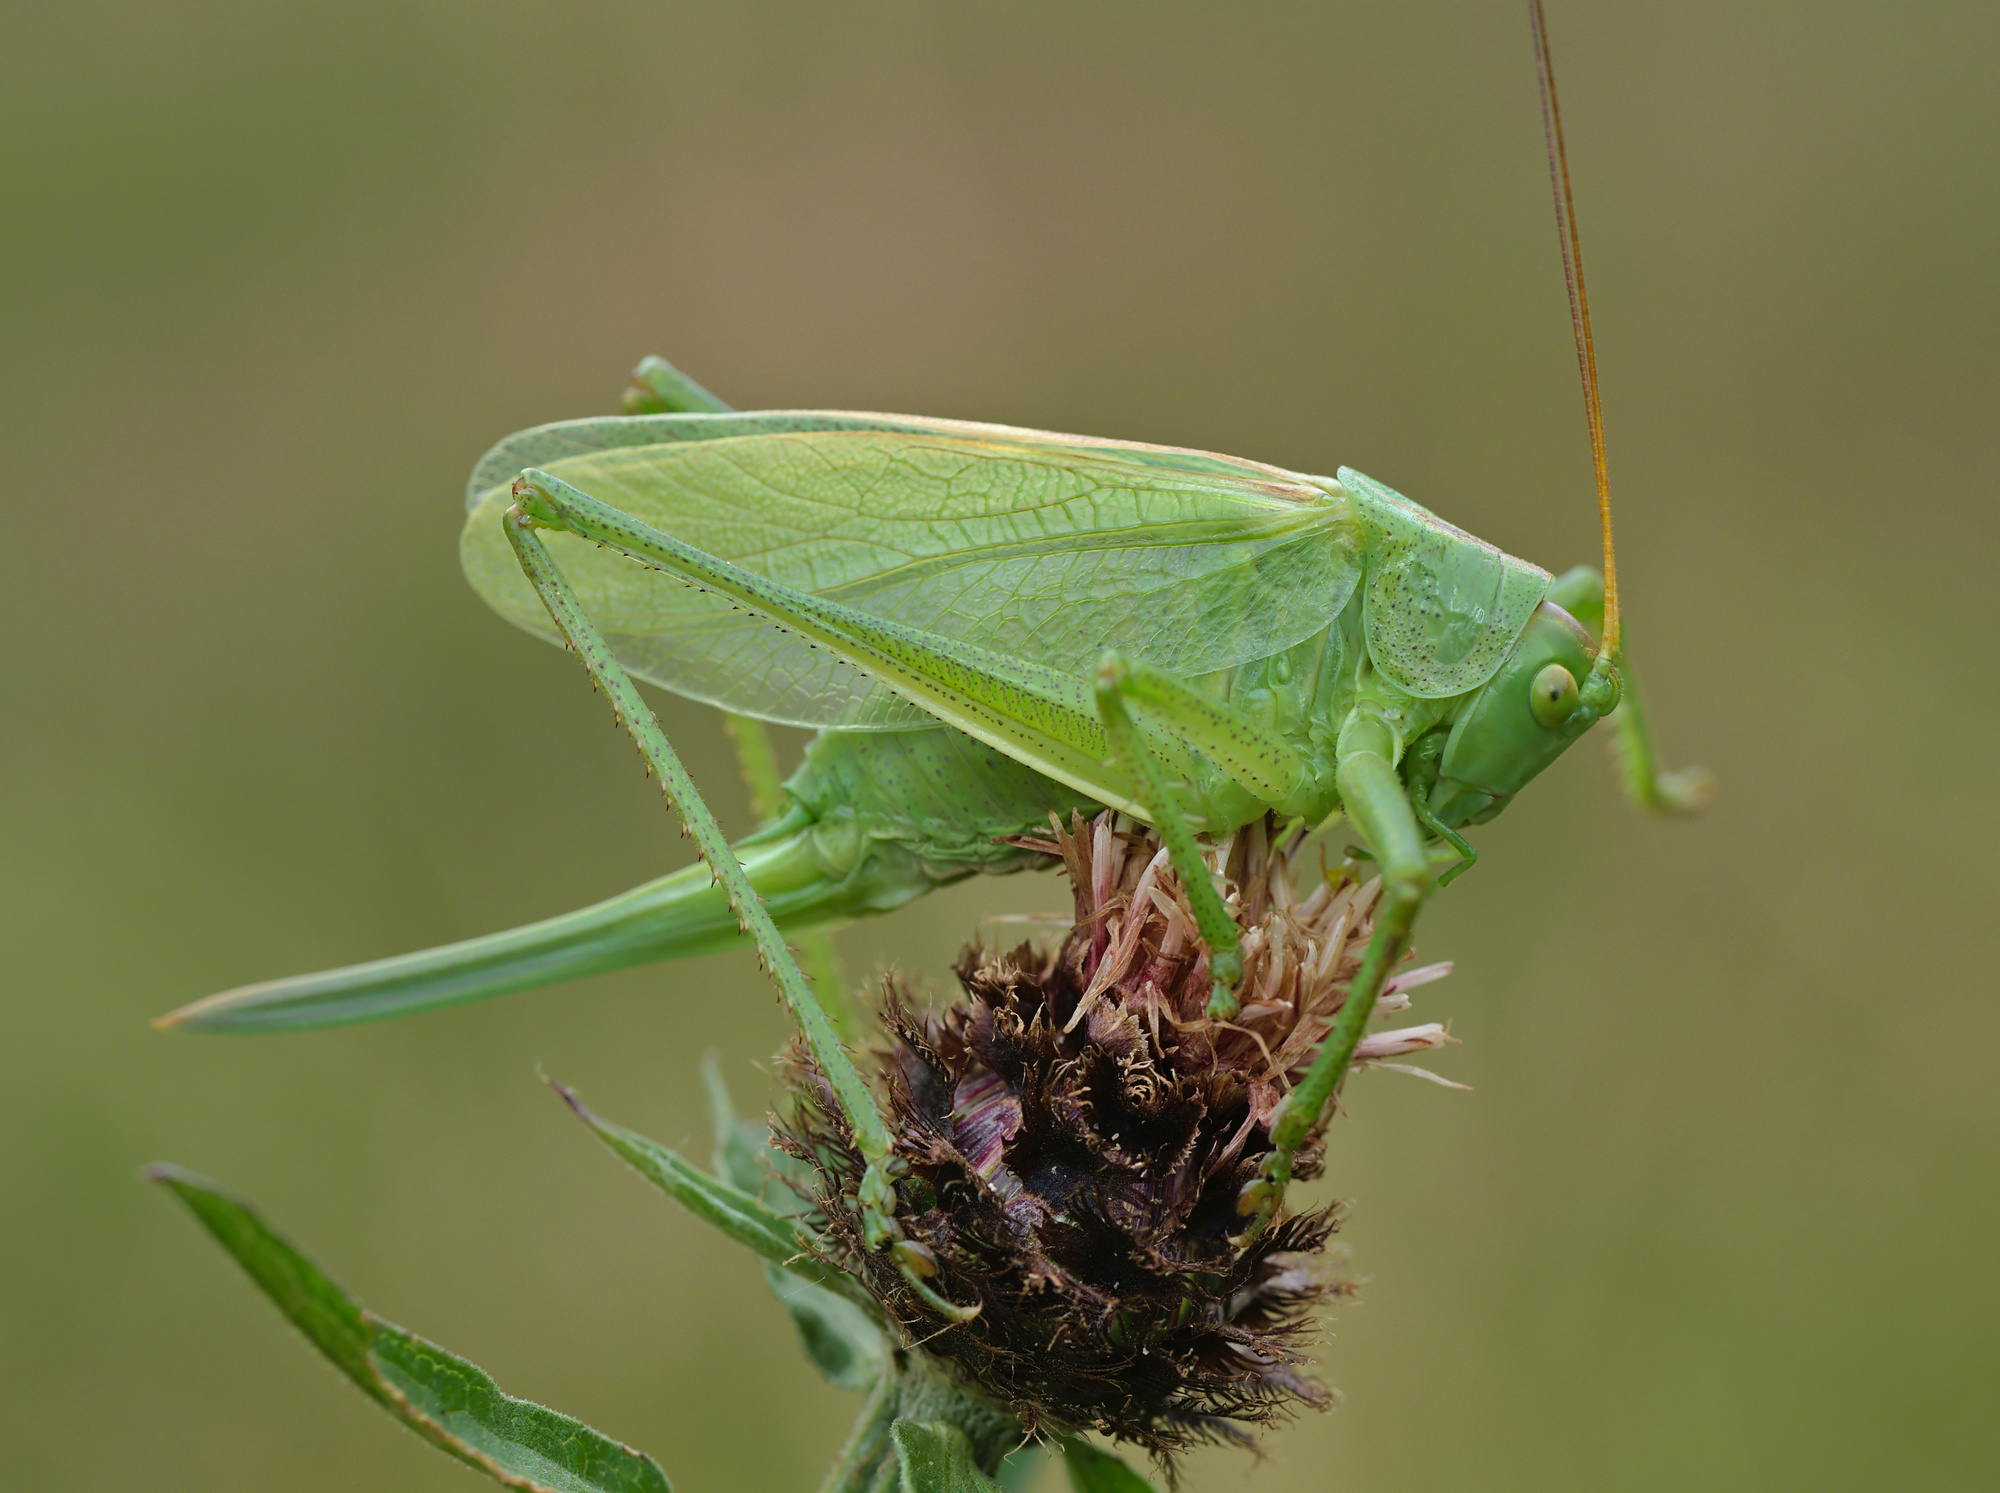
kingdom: Animalia
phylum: Arthropoda
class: Insecta
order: Orthoptera
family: Tettigoniidae
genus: Tettigonia
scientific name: Tettigonia cantans
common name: Upland green bush-cricket
